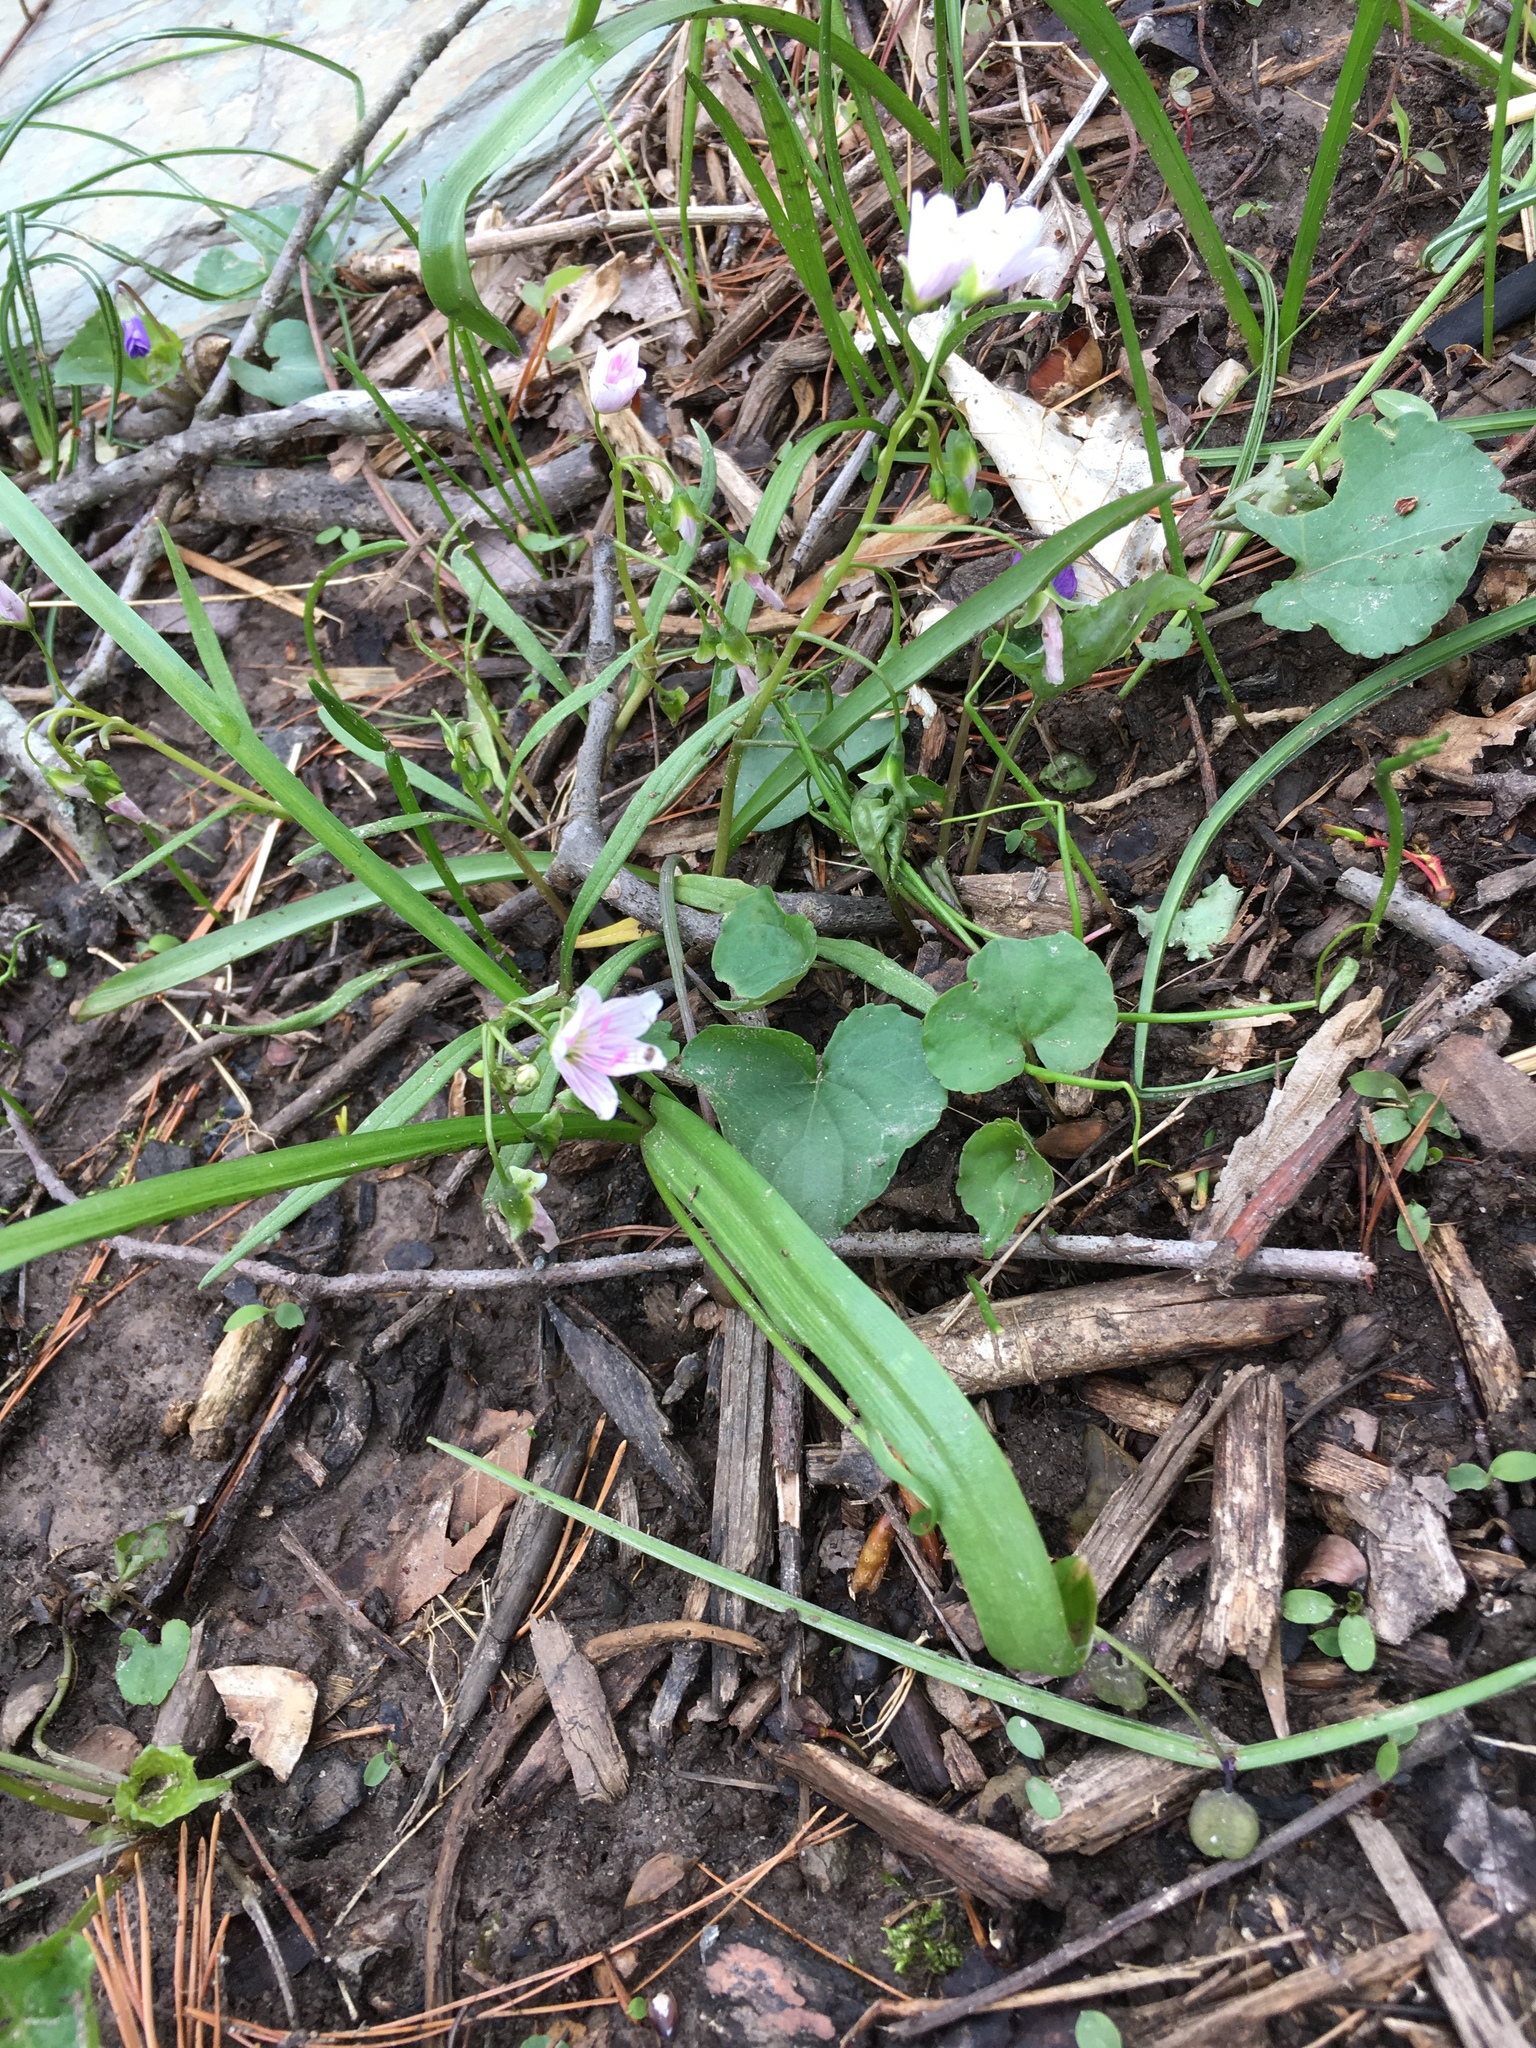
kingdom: Plantae
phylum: Tracheophyta
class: Magnoliopsida
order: Caryophyllales
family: Montiaceae
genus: Claytonia
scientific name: Claytonia virginica
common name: Virginia springbeauty
